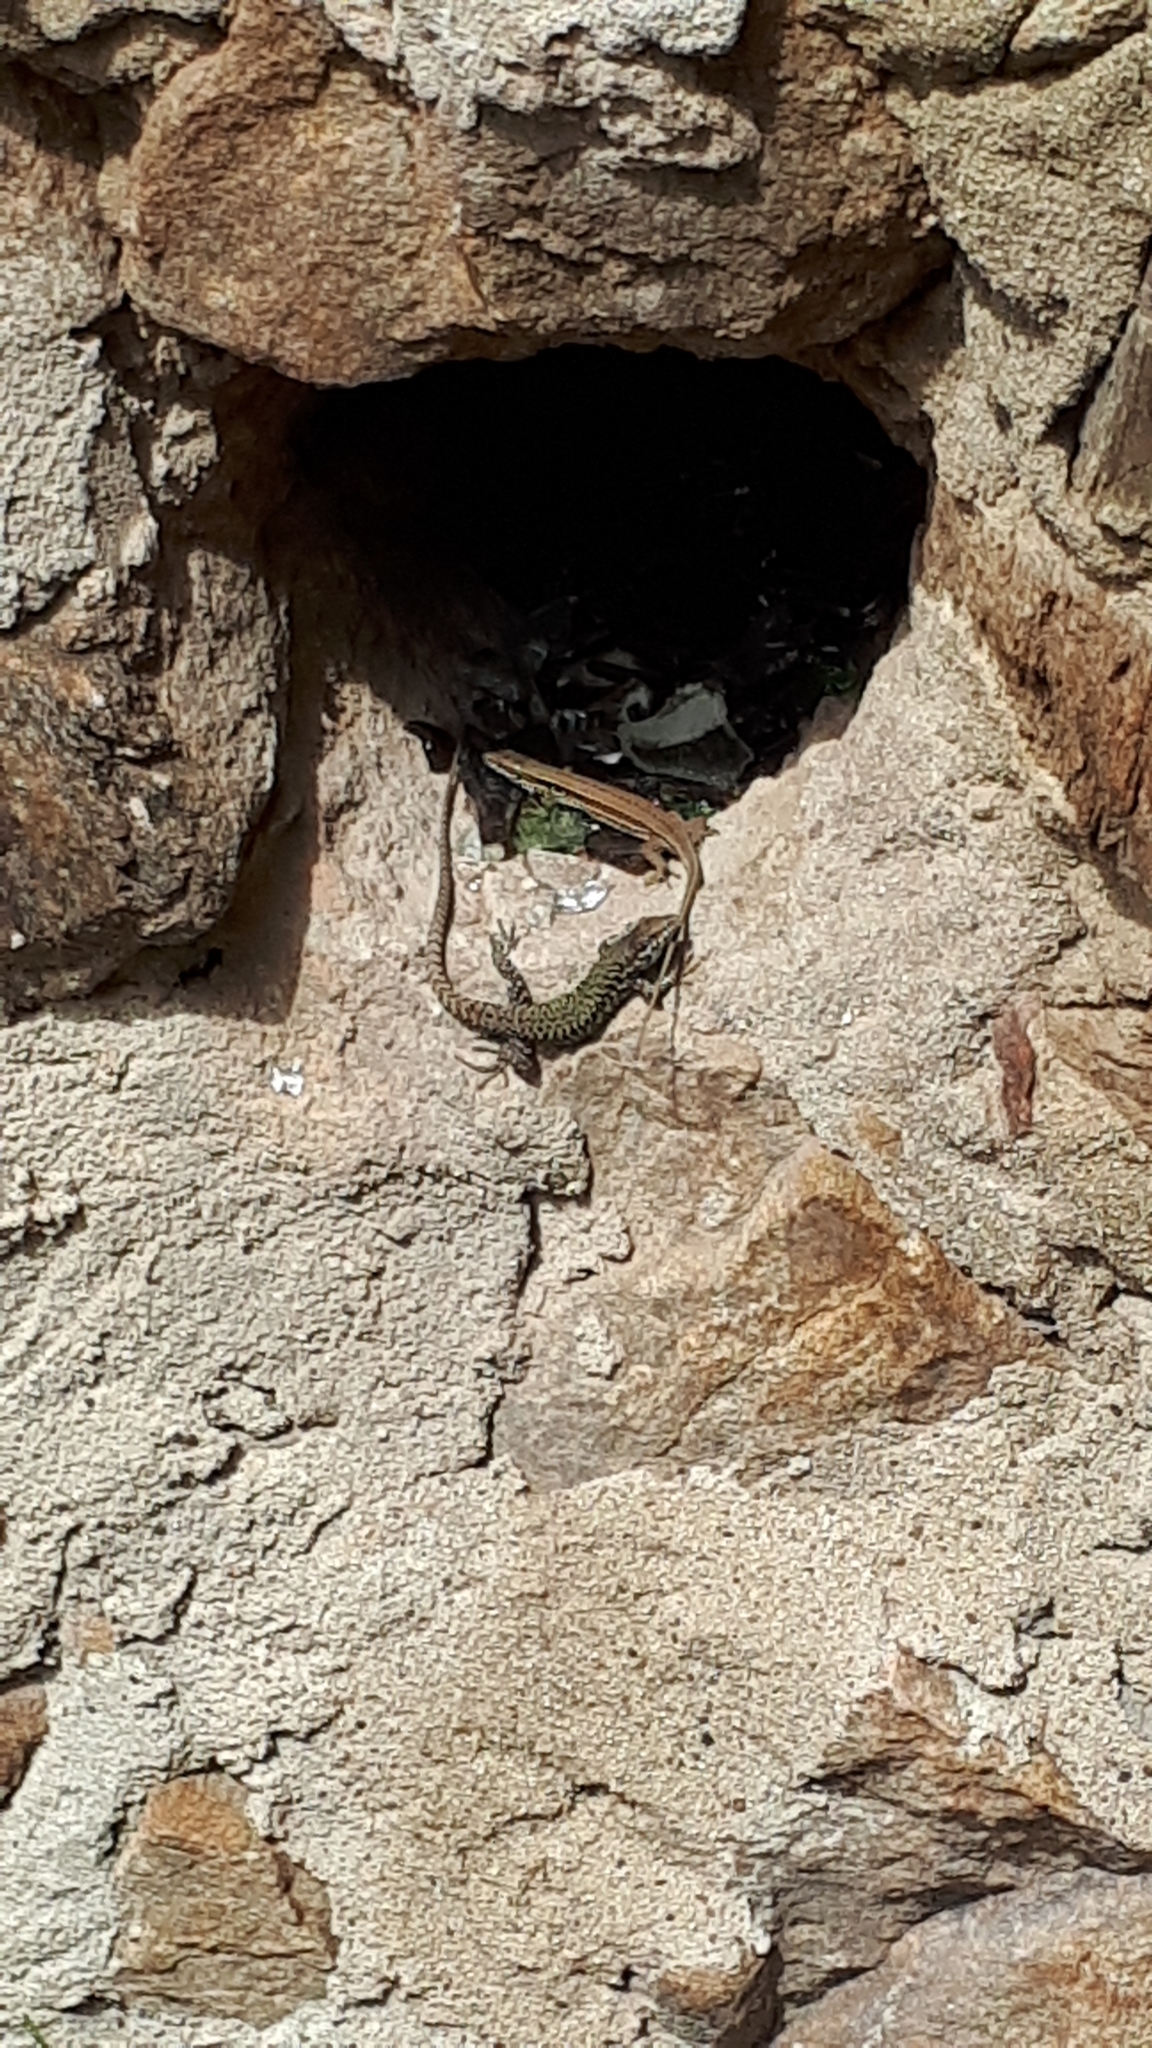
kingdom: Animalia
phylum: Chordata
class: Squamata
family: Lacertidae
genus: Podarcis
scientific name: Podarcis muralis
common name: Common wall lizard
